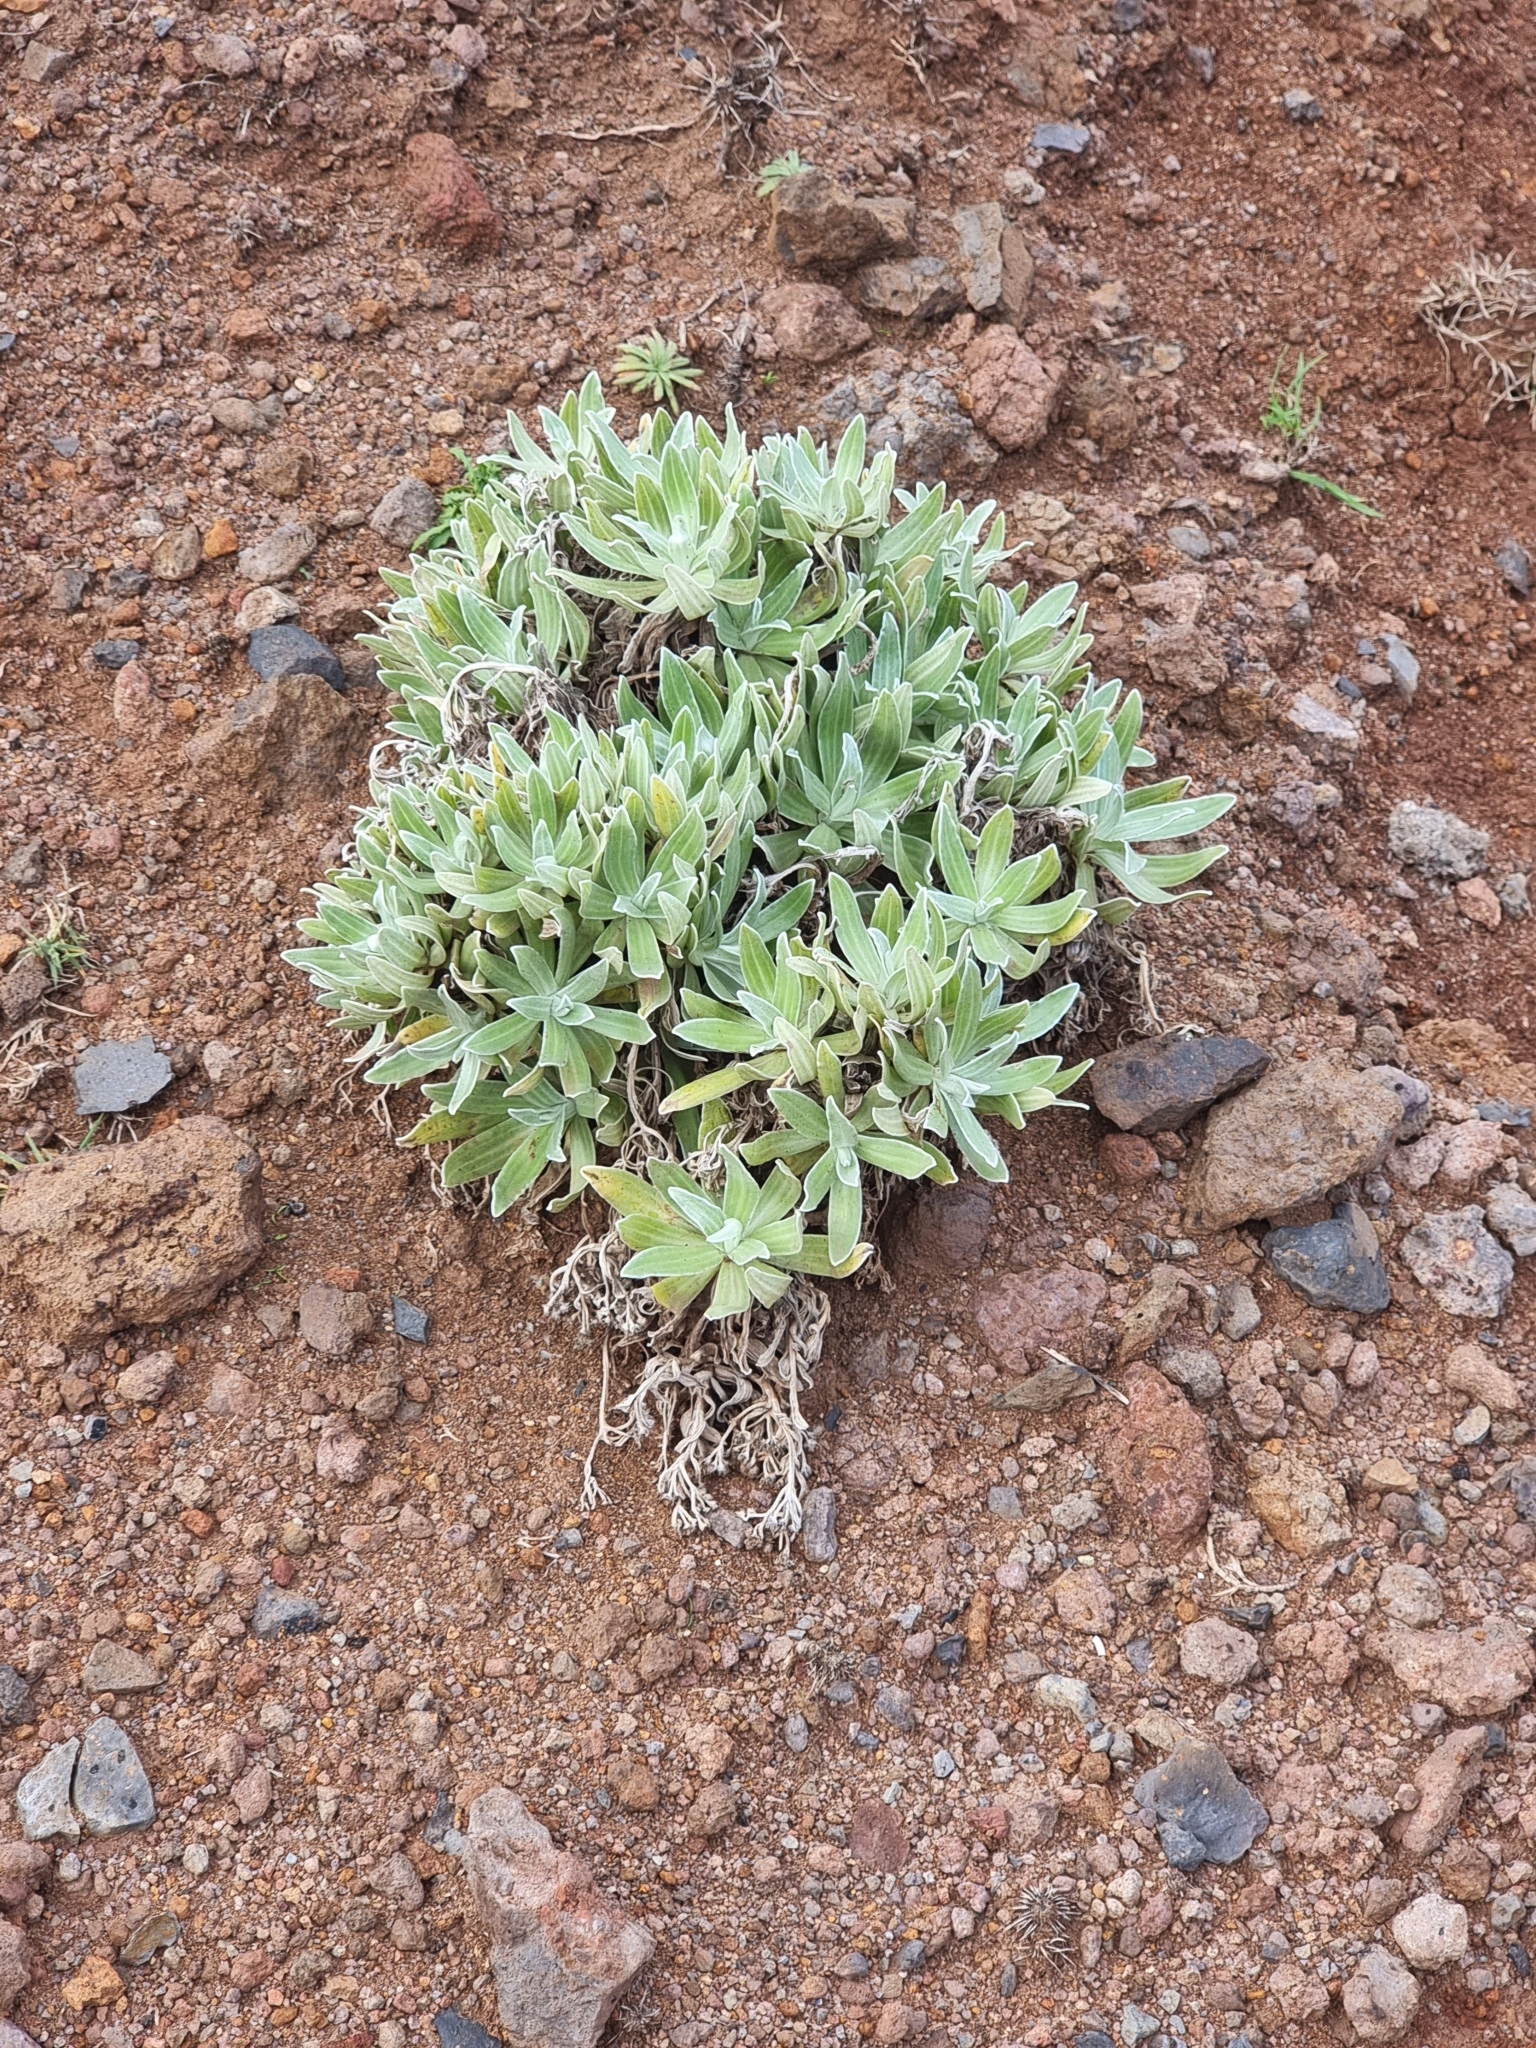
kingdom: Plantae
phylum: Tracheophyta
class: Magnoliopsida
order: Asterales
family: Asteraceae
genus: Helichrysum
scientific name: Helichrysum devium
